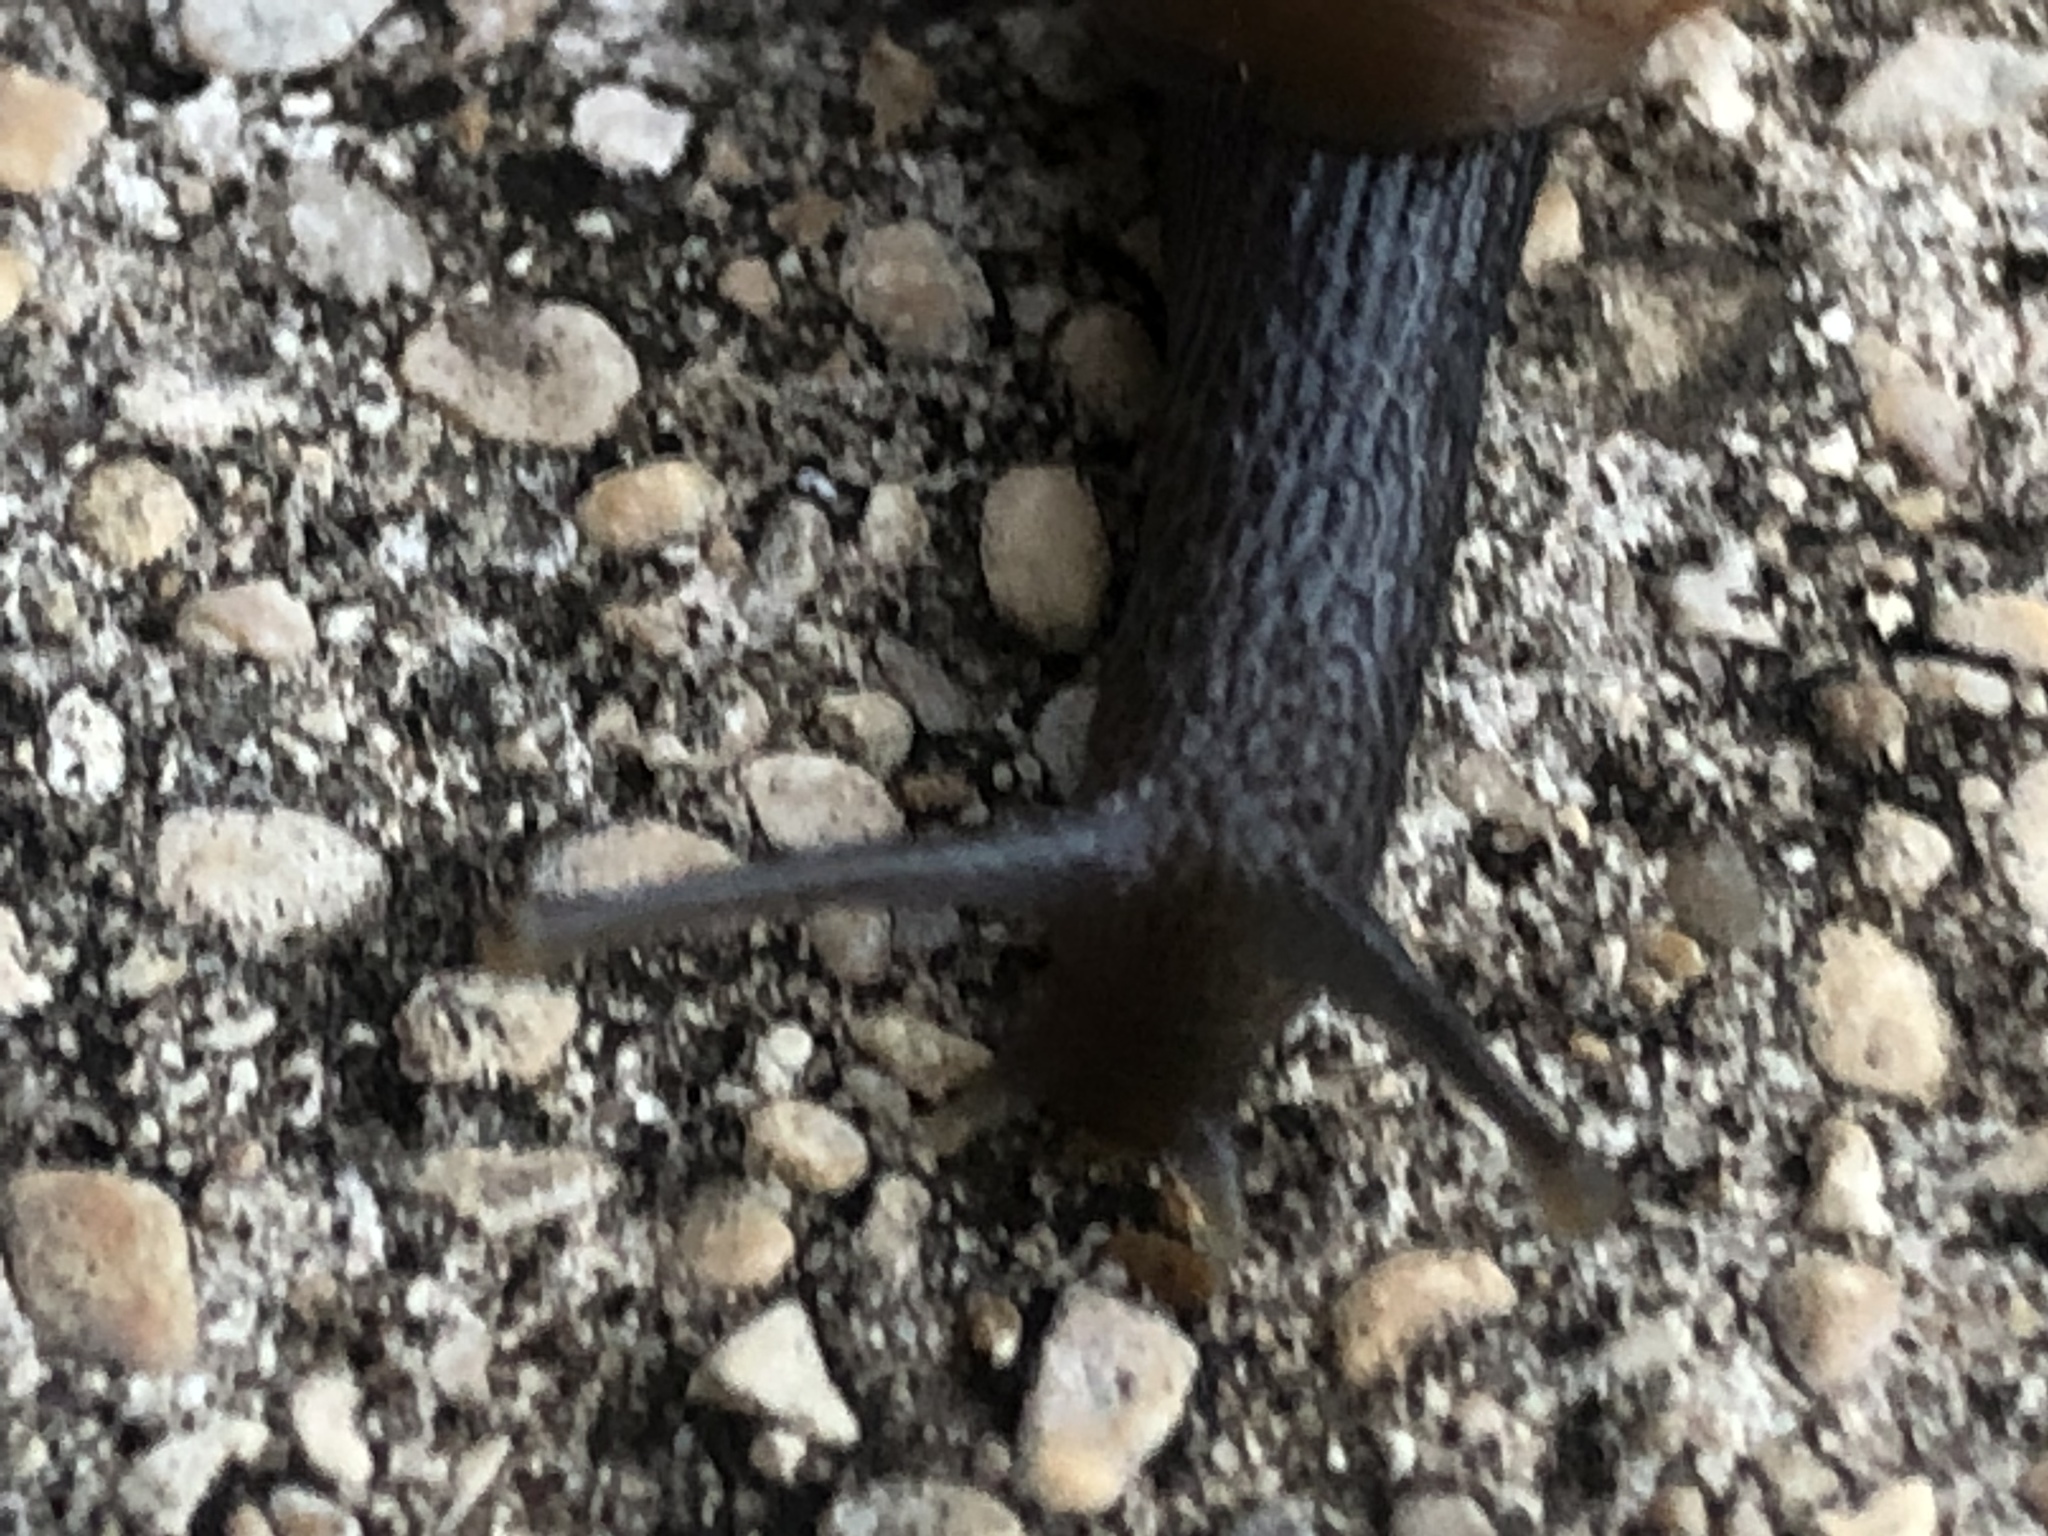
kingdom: Animalia
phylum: Mollusca
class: Gastropoda
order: Stylommatophora
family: Achatinidae
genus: Rumina
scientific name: Rumina decollata
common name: Decollate snail
